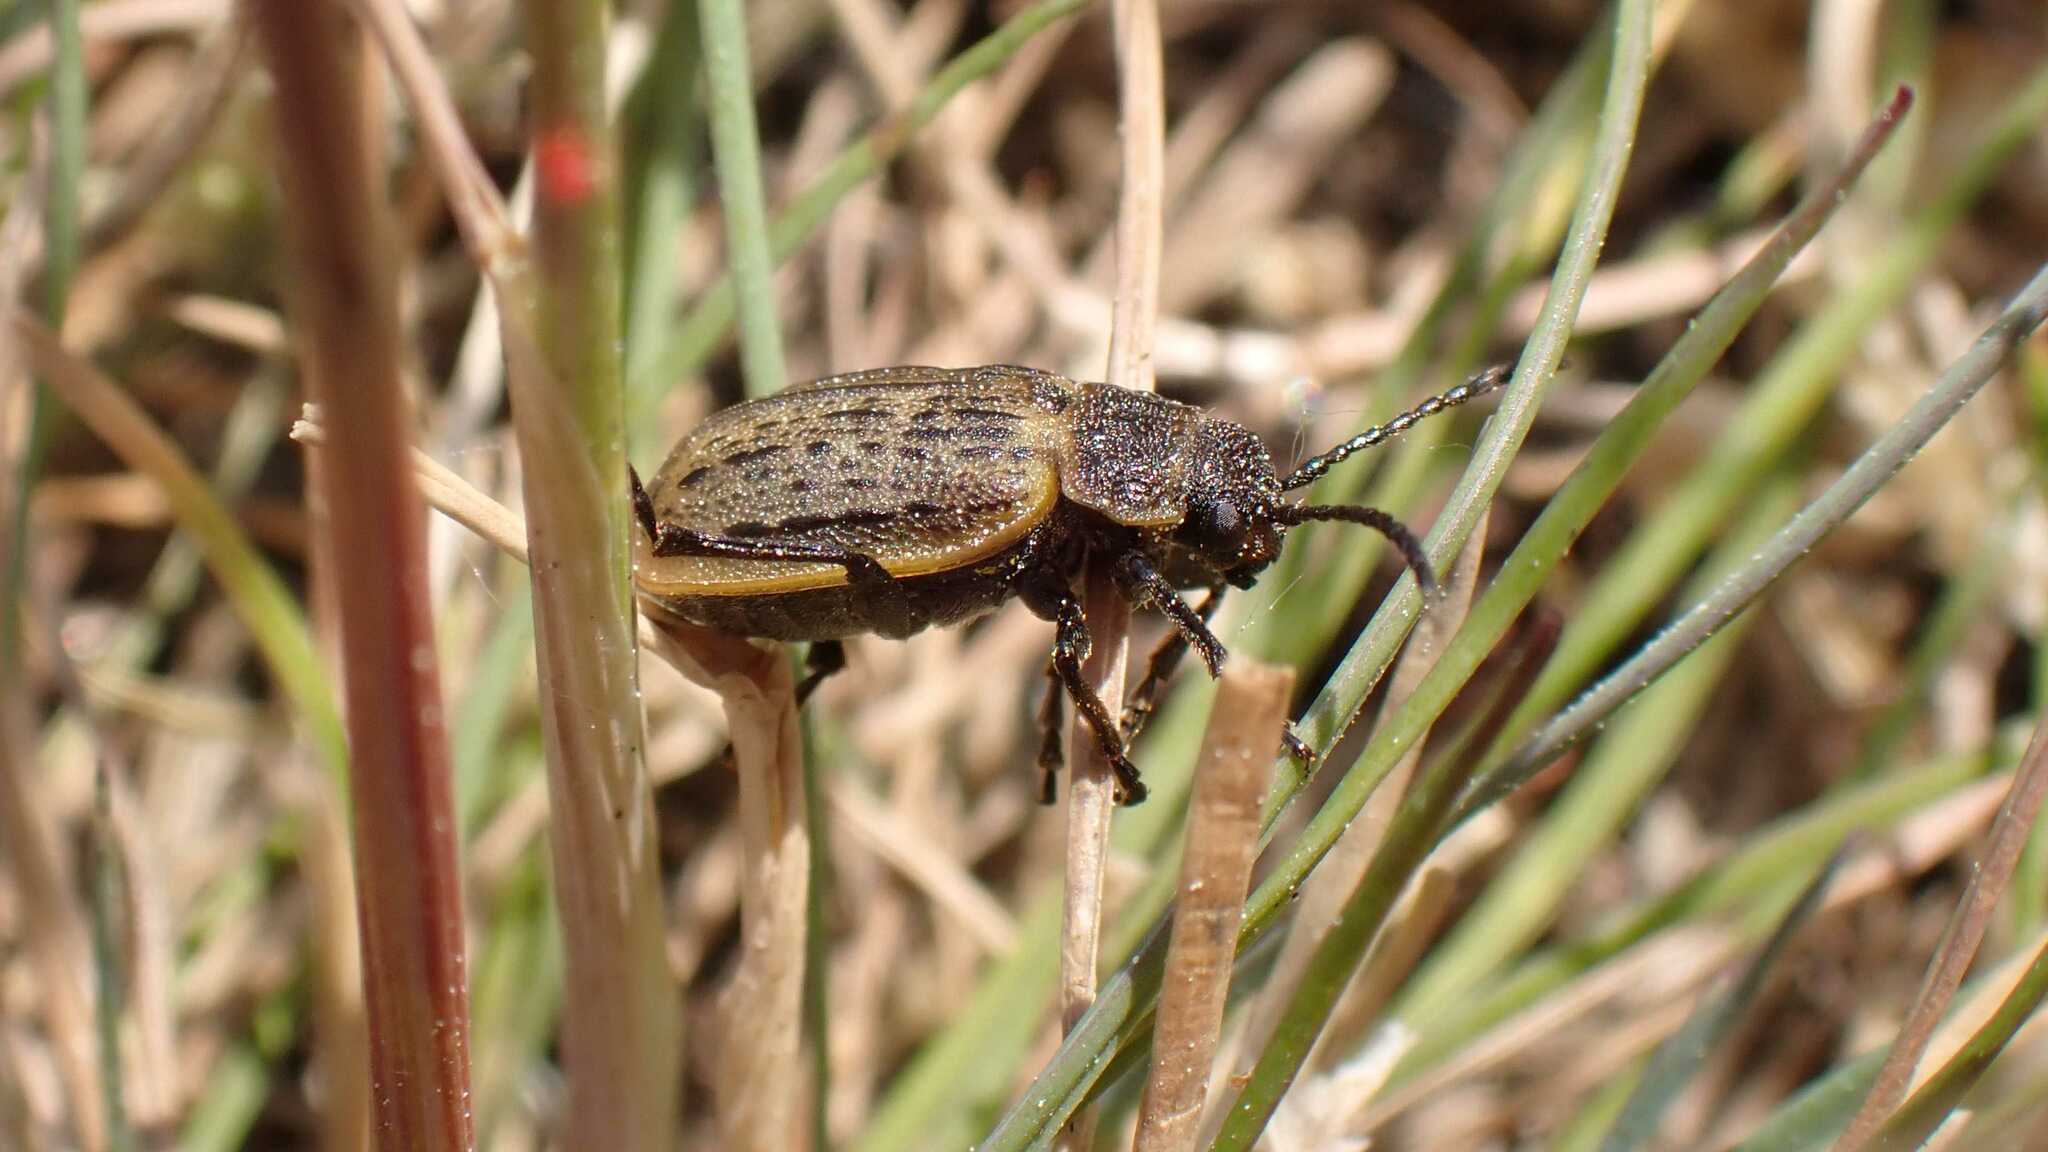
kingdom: Animalia
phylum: Arthropoda
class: Insecta
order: Coleoptera
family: Chrysomelidae
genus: Galeruca
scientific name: Galeruca interrupta
